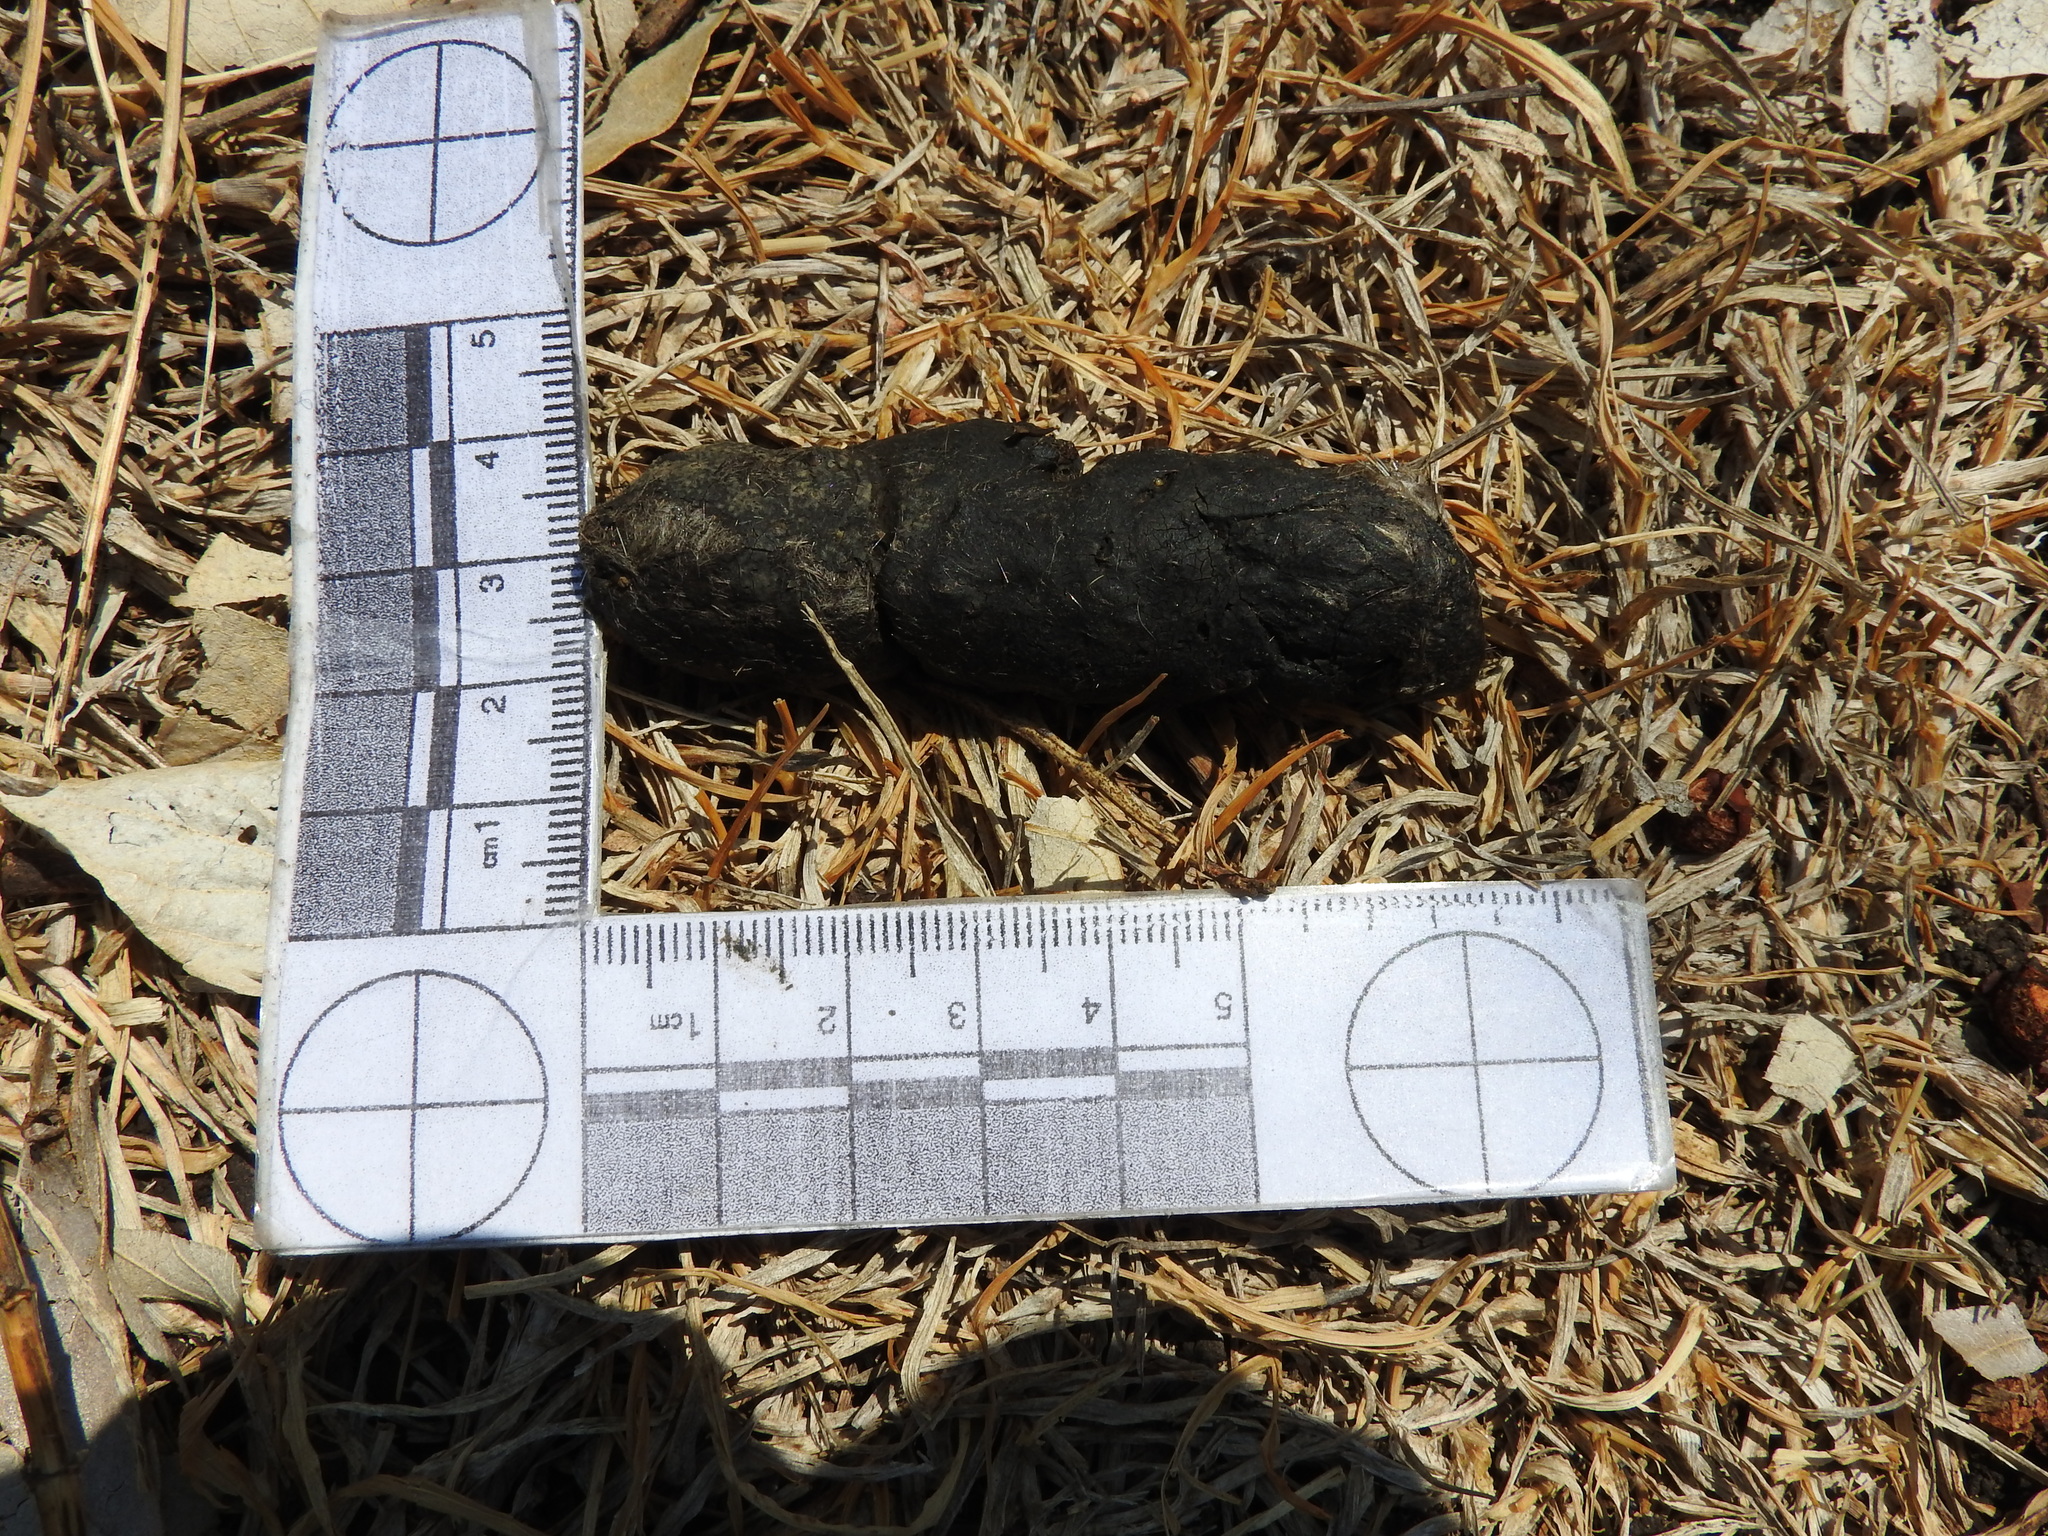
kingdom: Animalia
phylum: Chordata
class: Mammalia
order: Carnivora
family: Felidae
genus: Lynx
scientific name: Lynx rufus
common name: Bobcat
